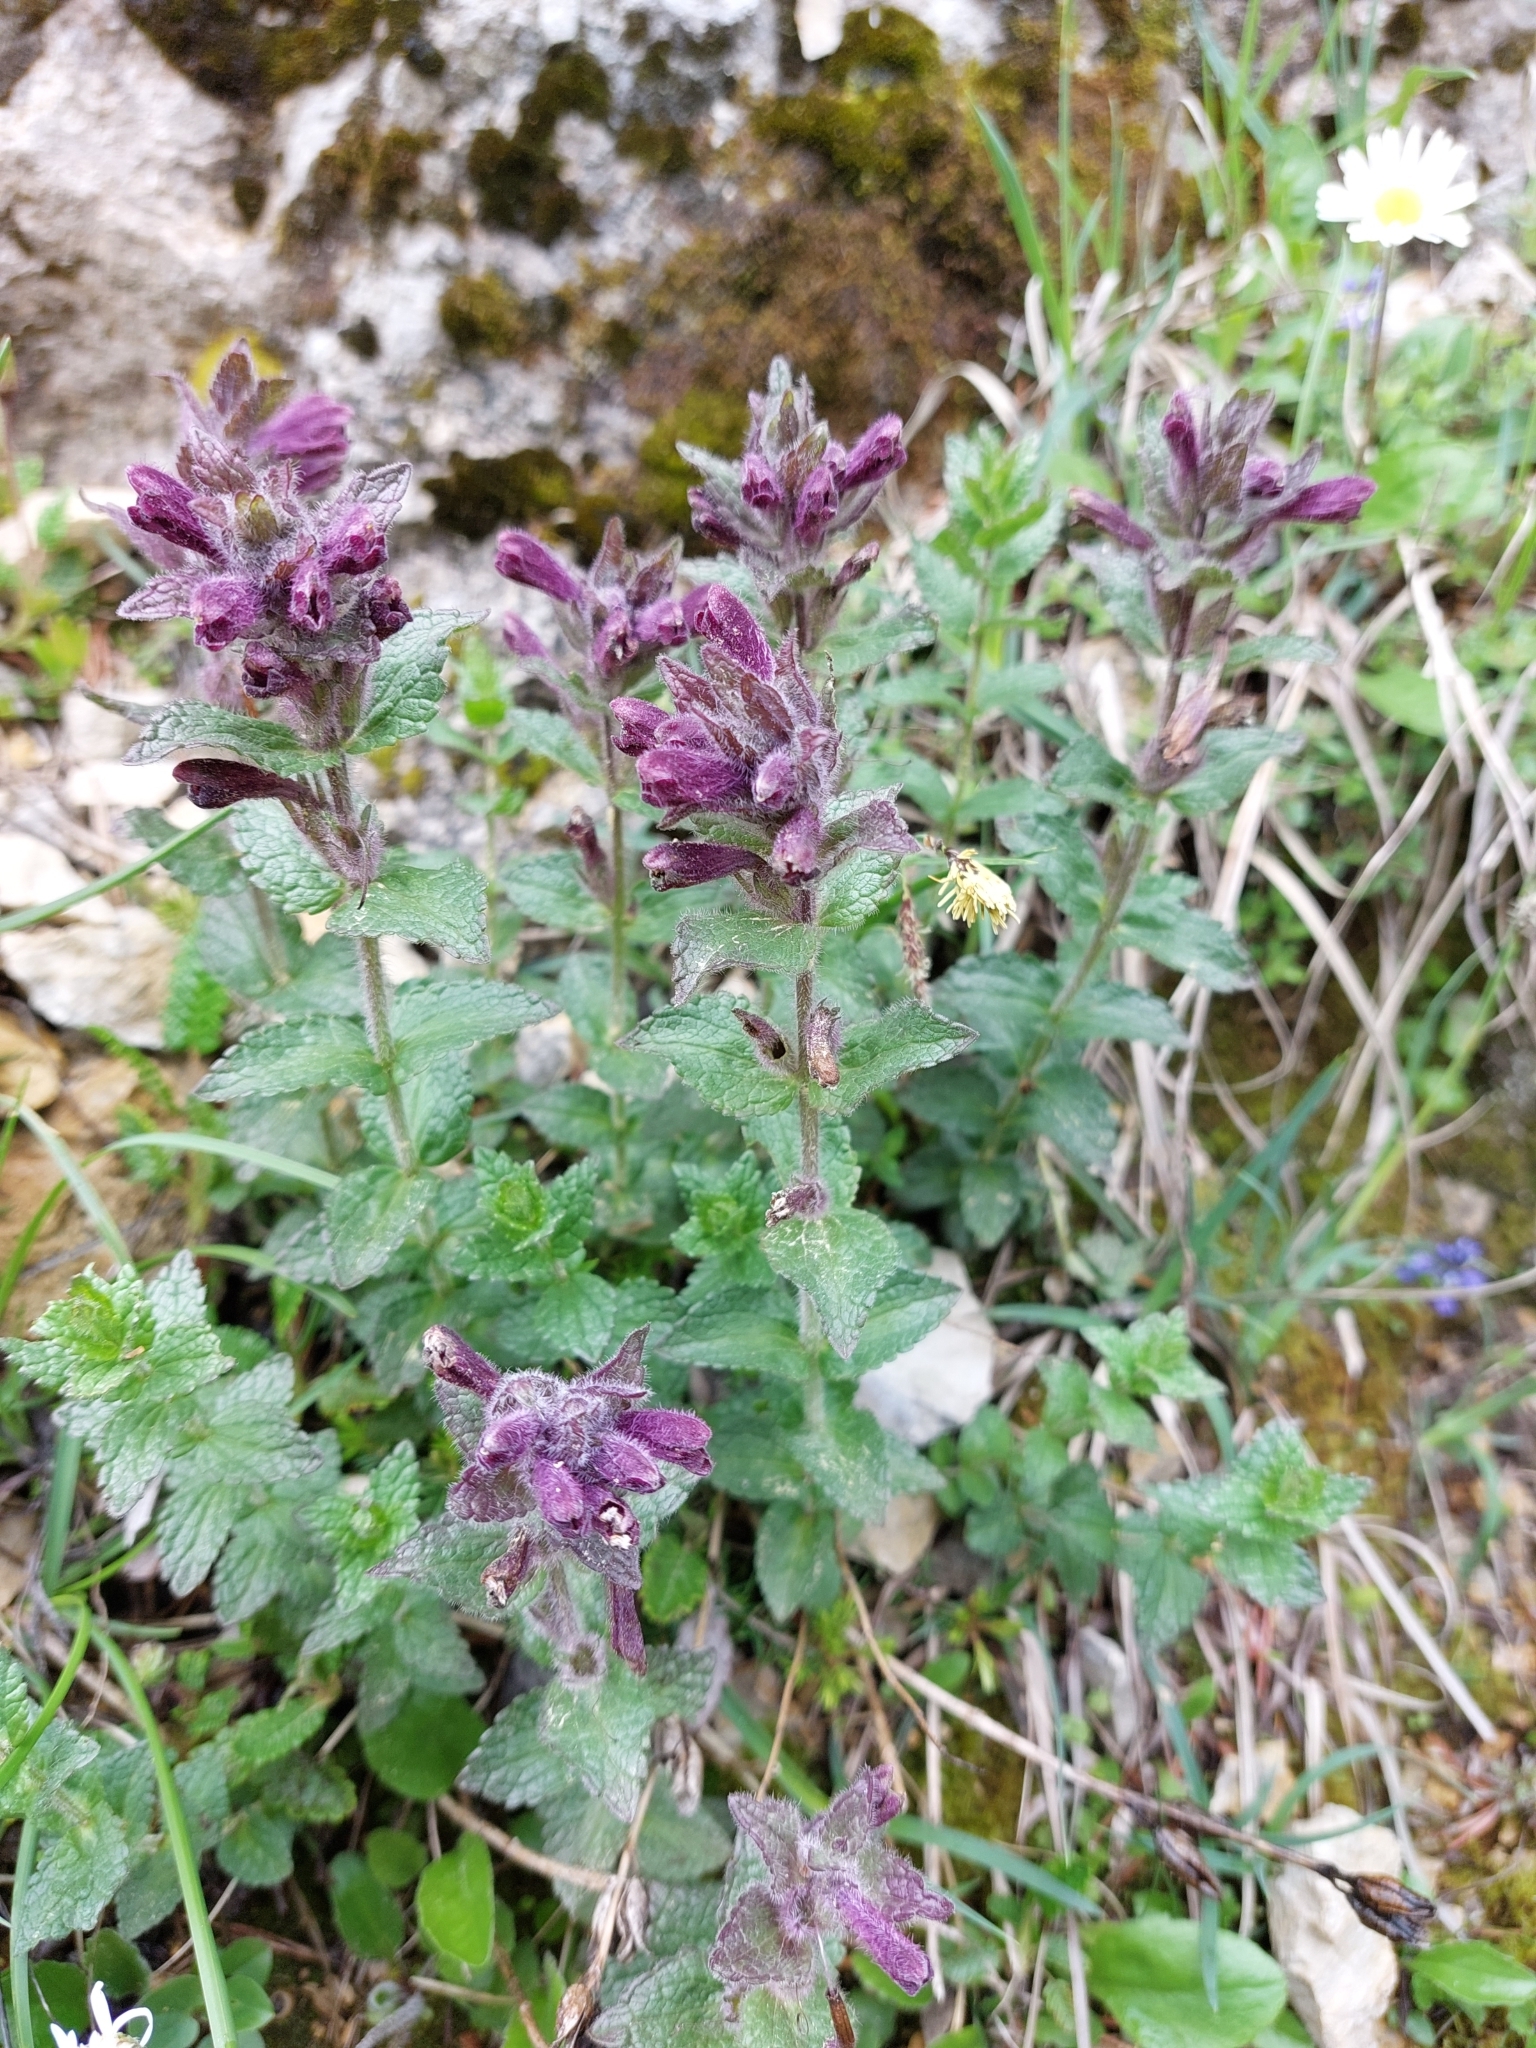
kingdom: Plantae
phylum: Tracheophyta
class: Magnoliopsida
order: Lamiales
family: Orobanchaceae
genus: Bartsia
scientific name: Bartsia alpina
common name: Alpine bartsia
